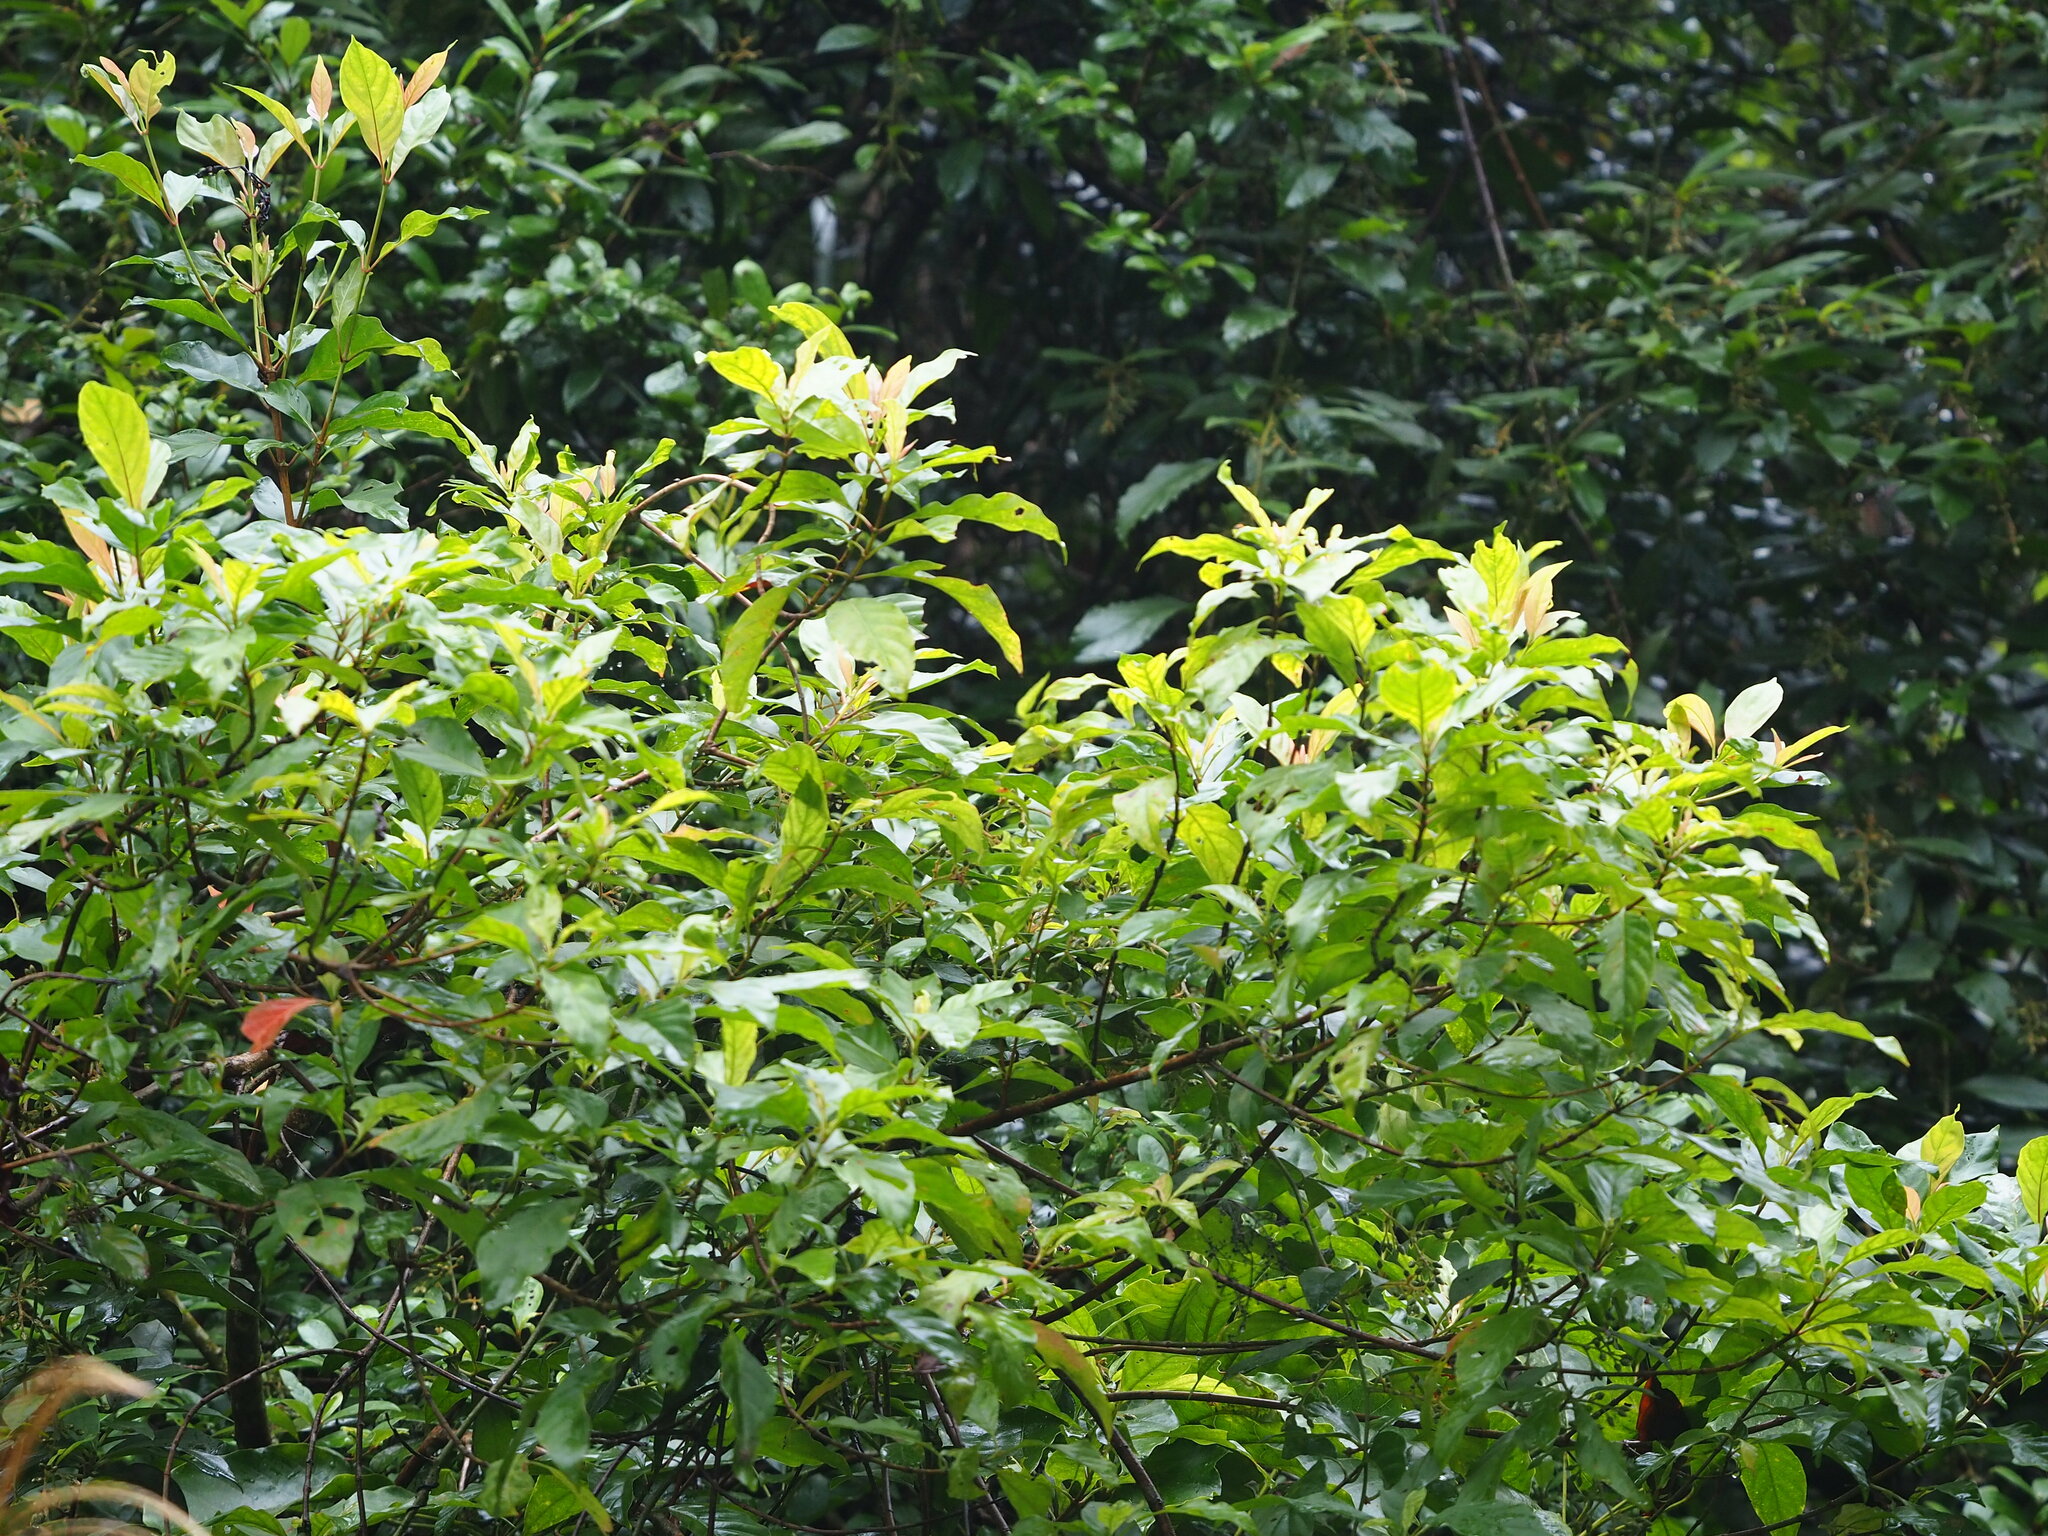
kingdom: Plantae
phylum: Tracheophyta
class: Magnoliopsida
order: Gentianales
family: Rubiaceae
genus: Wendlandia
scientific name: Wendlandia formosana
